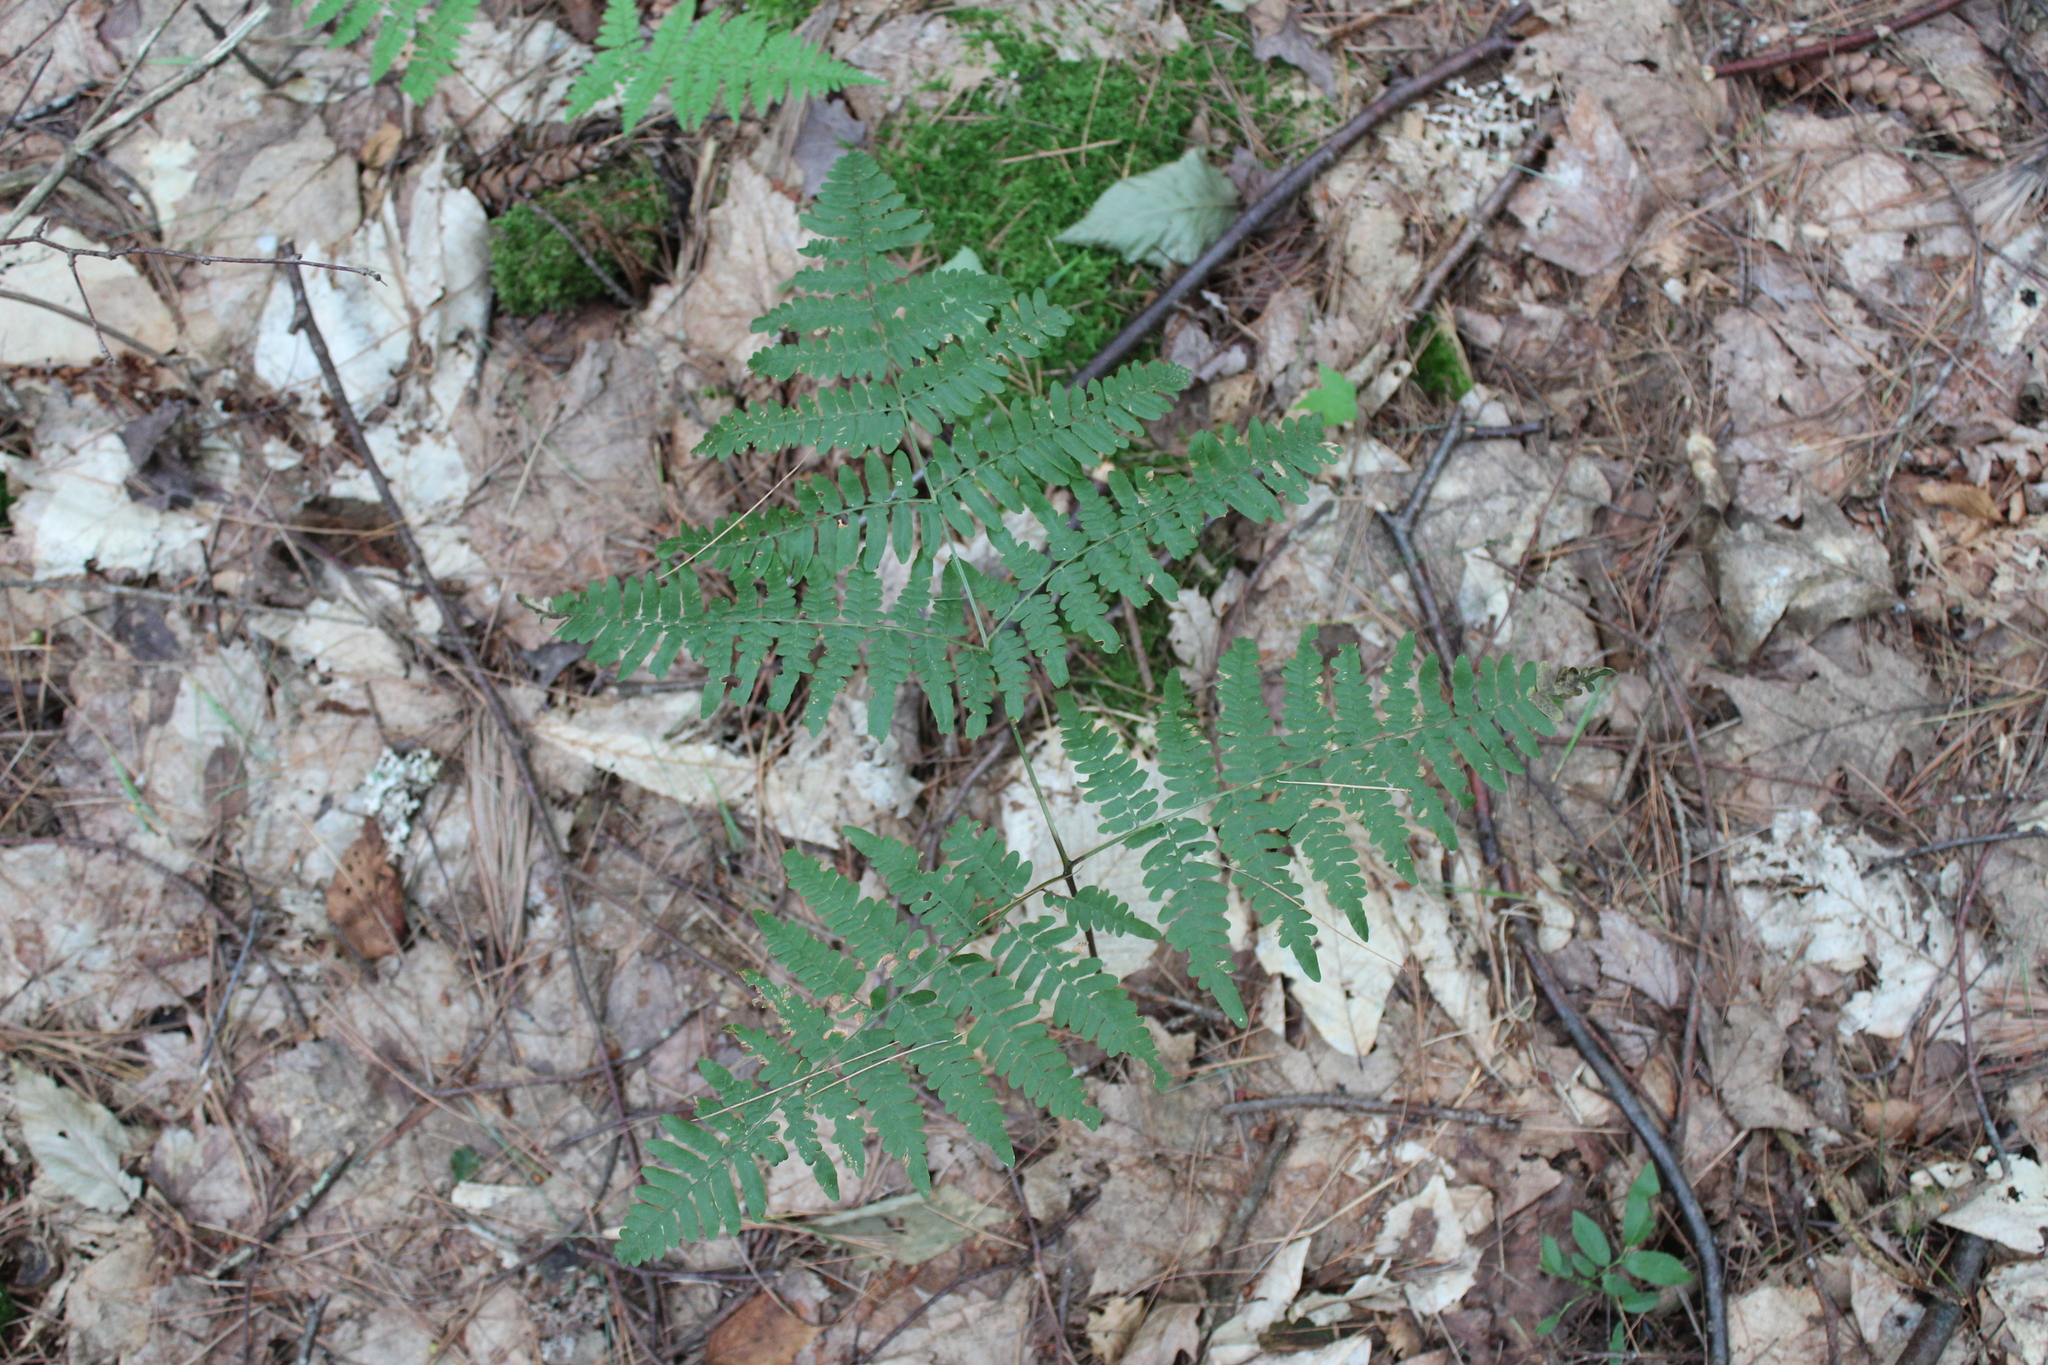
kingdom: Plantae
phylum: Tracheophyta
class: Polypodiopsida
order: Polypodiales
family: Dennstaedtiaceae
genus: Pteridium
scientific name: Pteridium aquilinum
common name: Bracken
